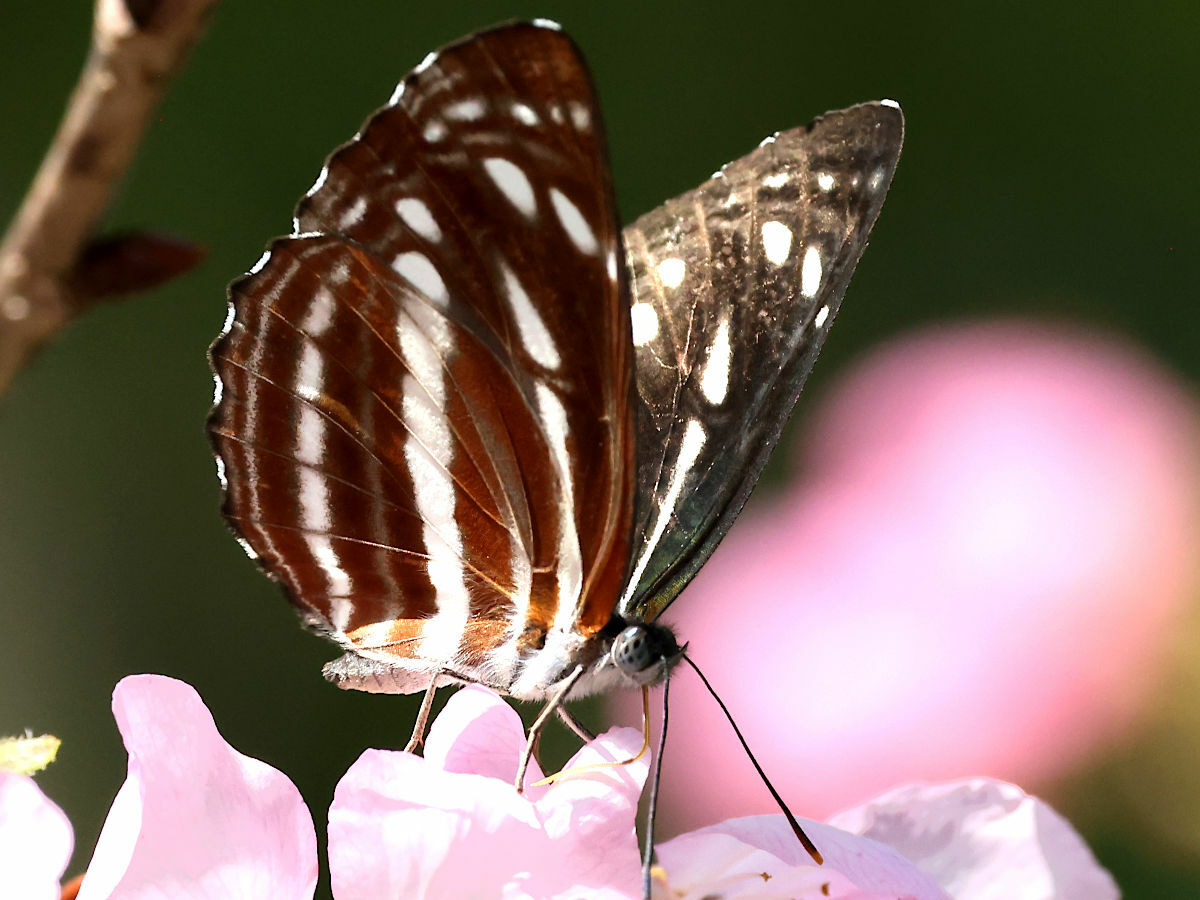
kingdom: Animalia
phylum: Arthropoda
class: Insecta
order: Lepidoptera
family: Nymphalidae
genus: Neptis
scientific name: Neptis nata
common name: Sullied brown sailer
